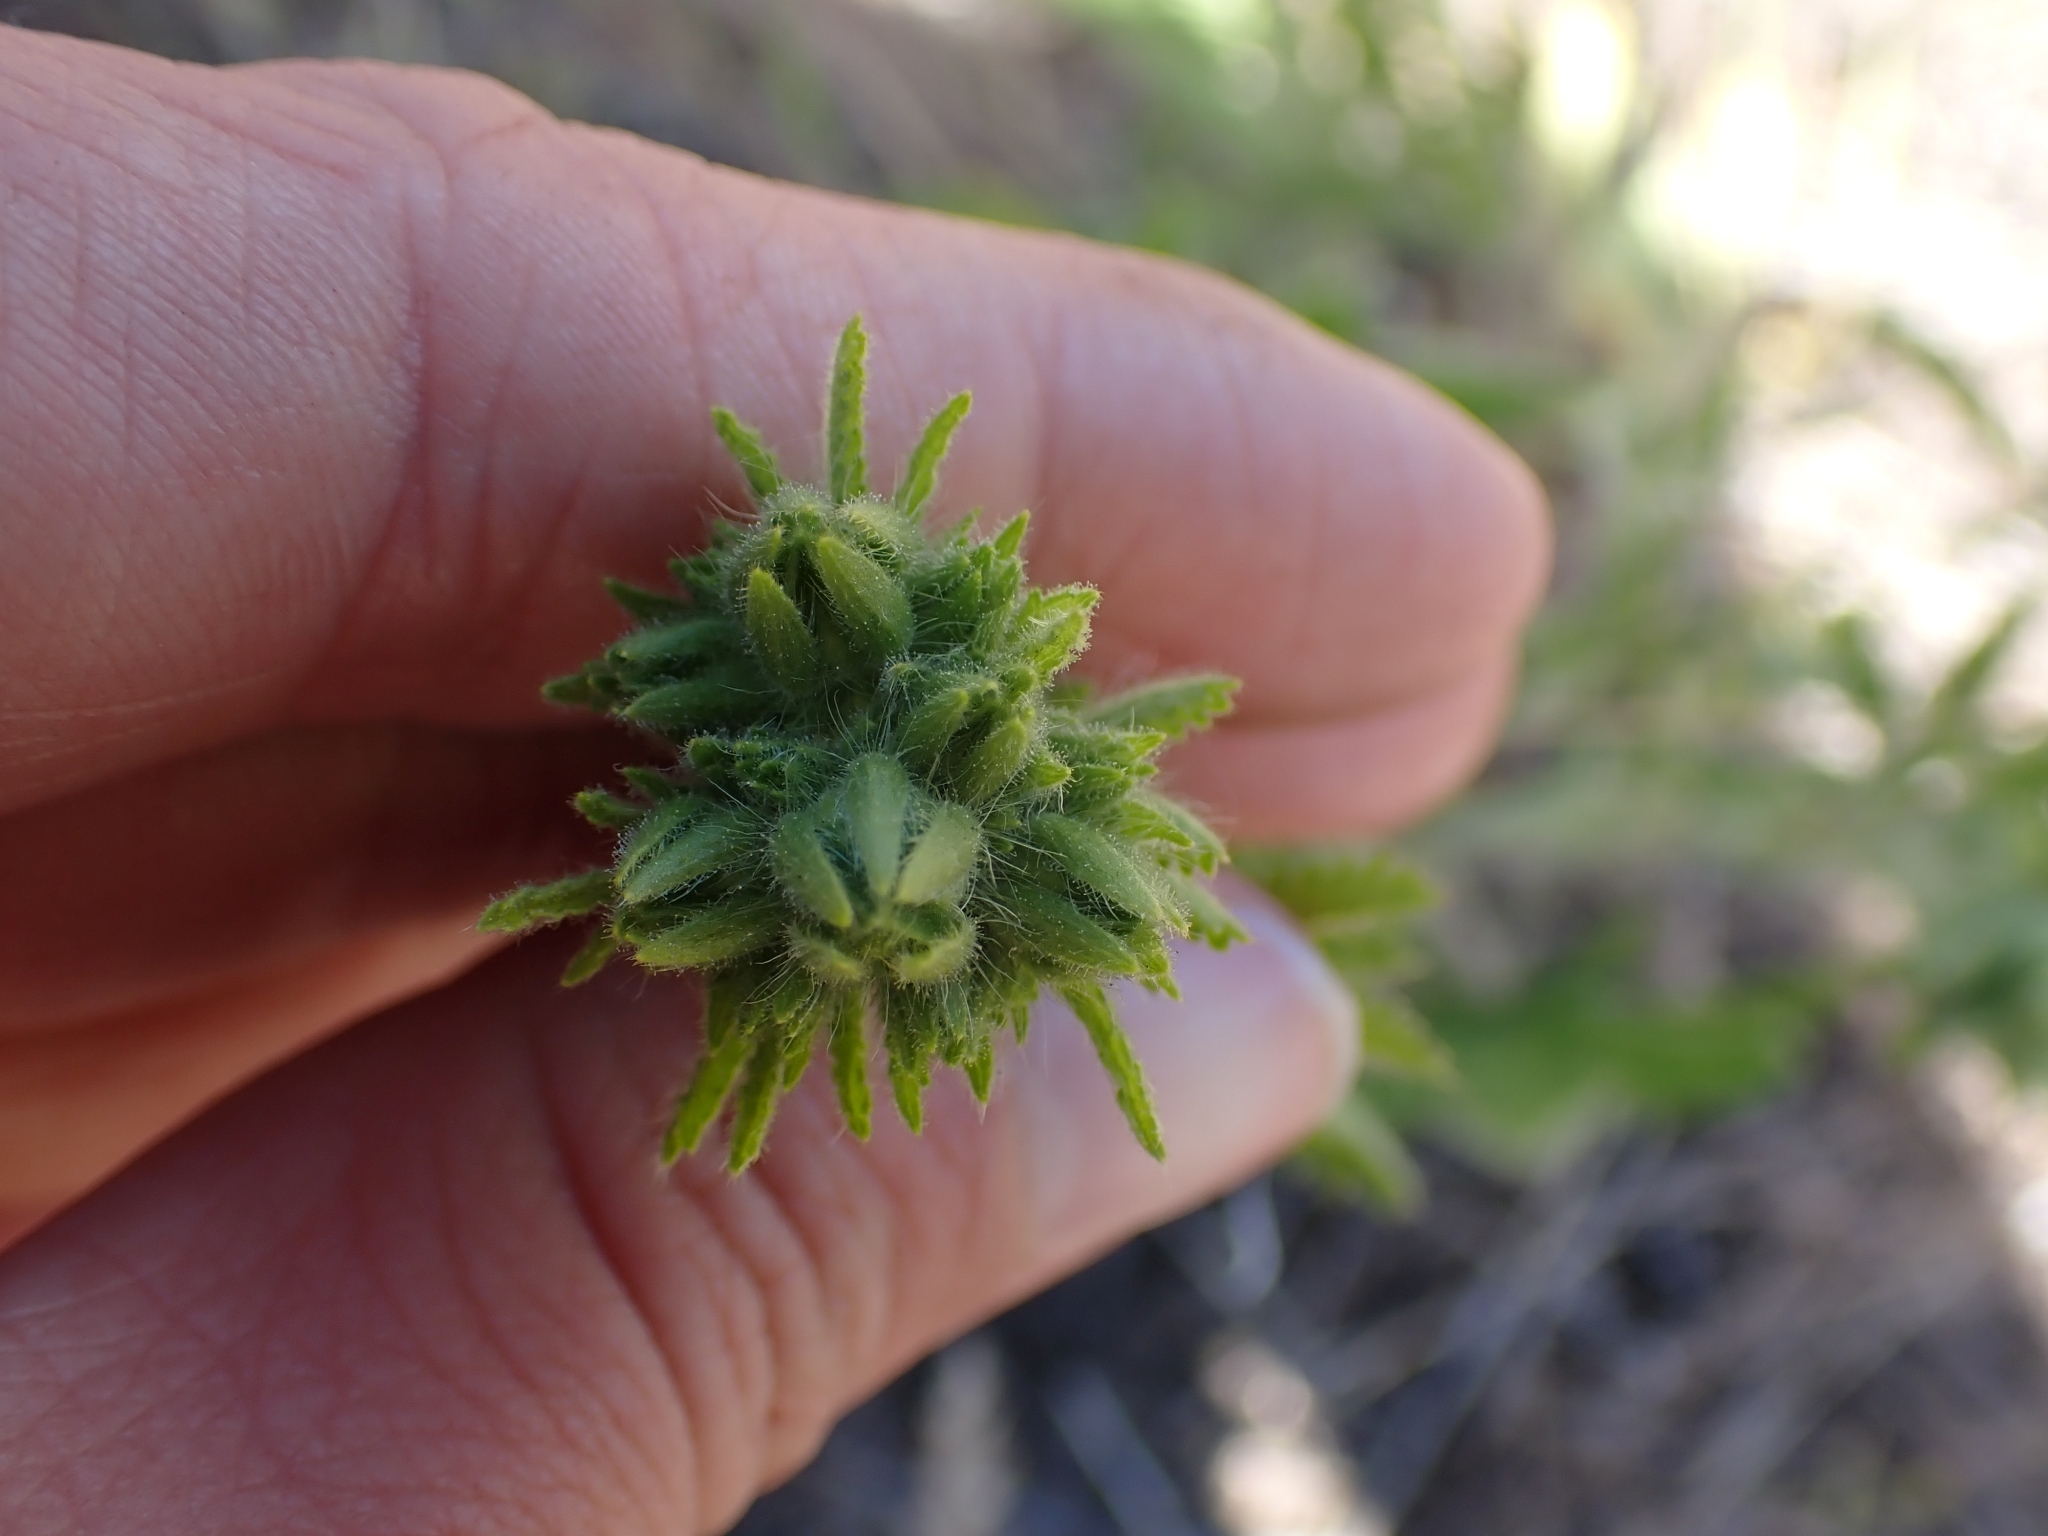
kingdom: Plantae
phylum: Tracheophyta
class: Magnoliopsida
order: Rosales
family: Rosaceae
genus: Potentilla
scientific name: Potentilla recta
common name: Sulphur cinquefoil
